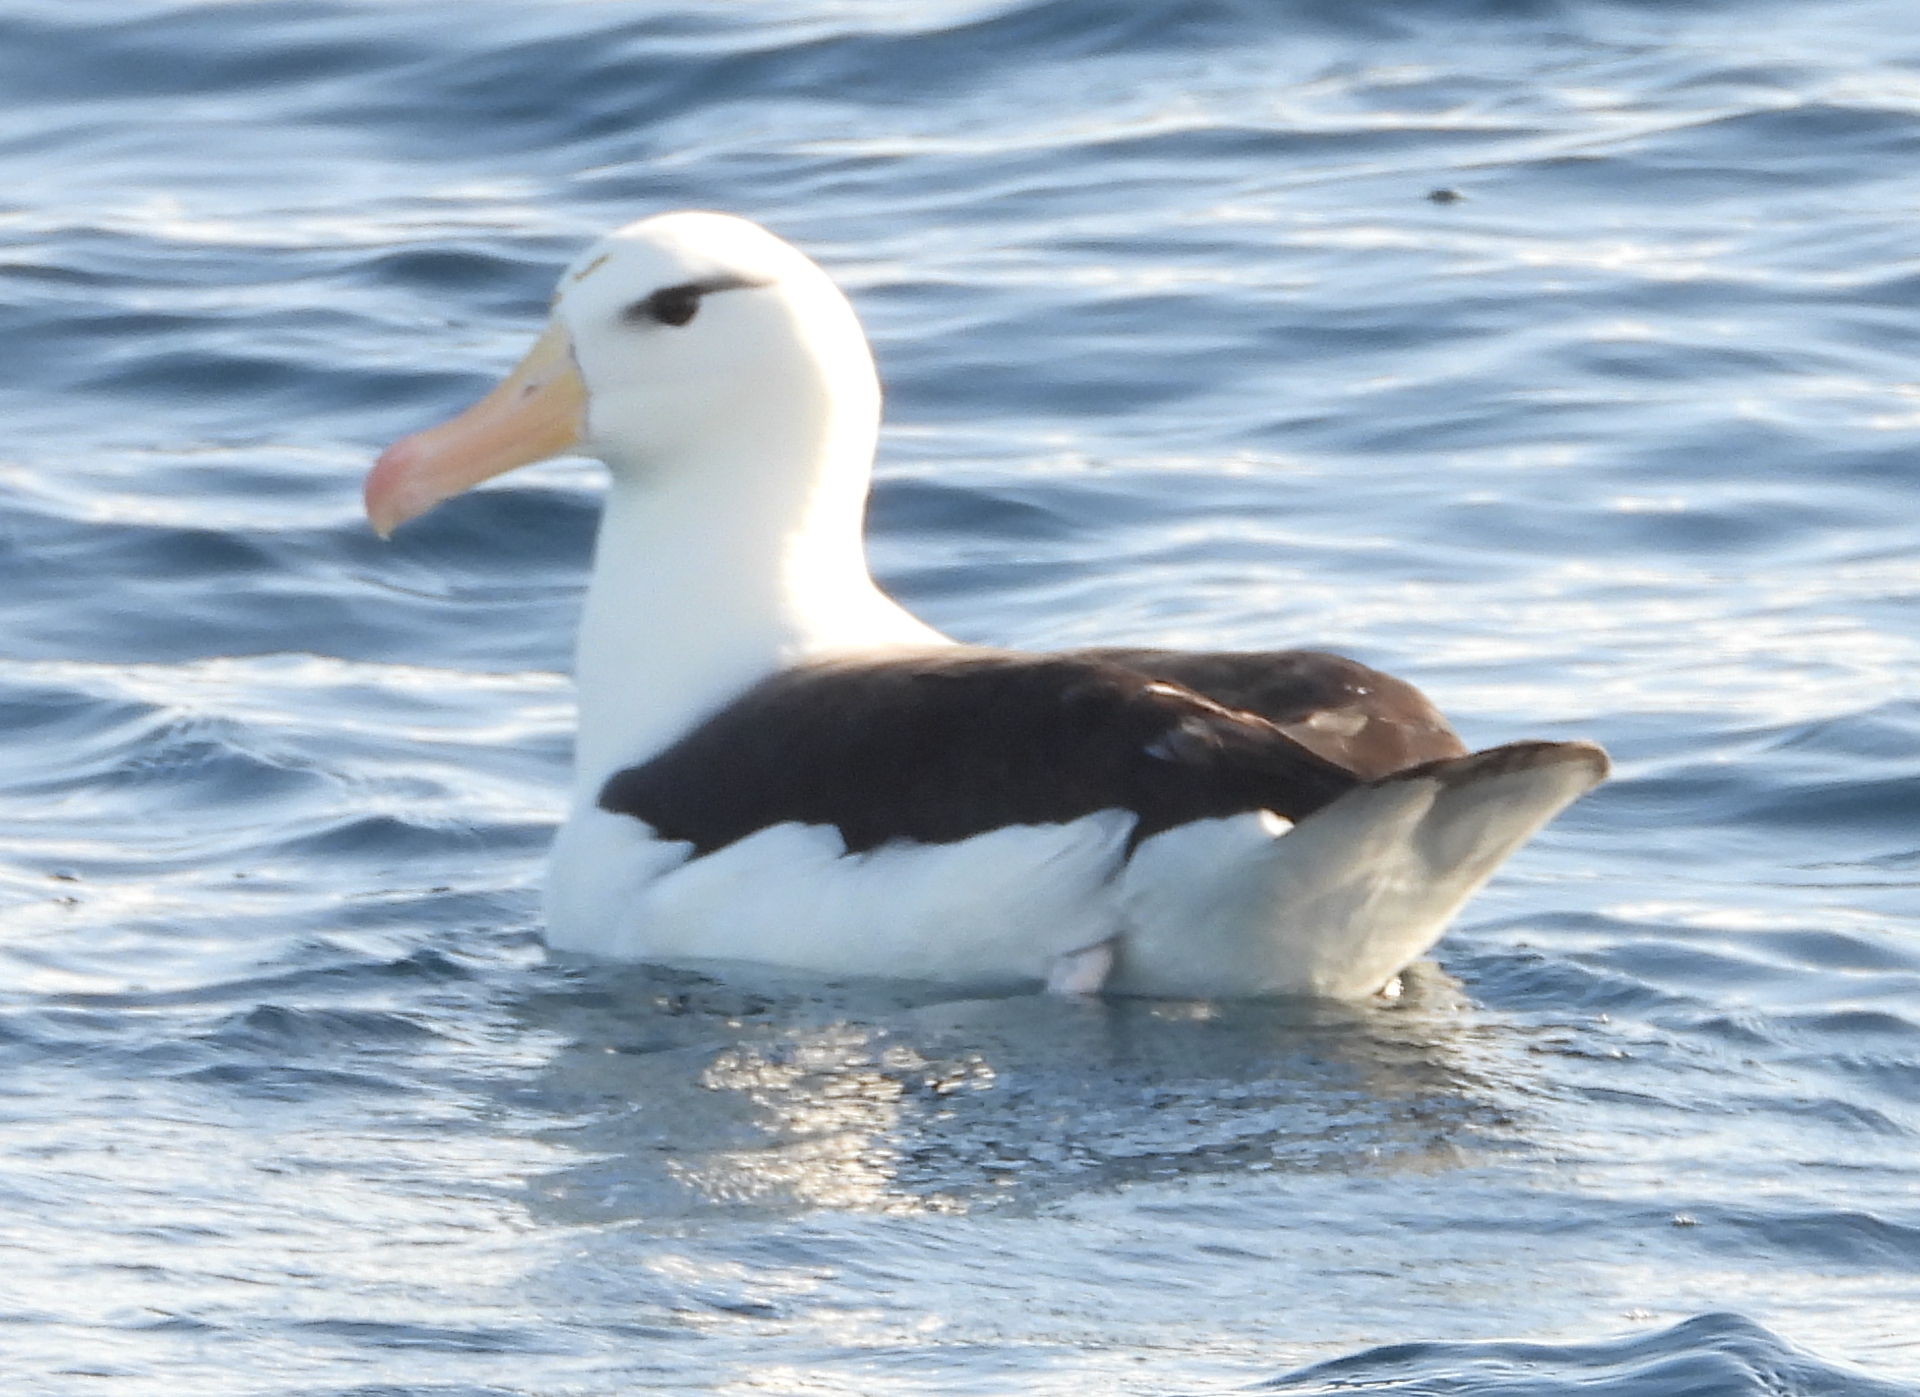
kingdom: Animalia
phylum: Chordata
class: Aves
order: Procellariiformes
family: Diomedeidae
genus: Thalassarche
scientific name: Thalassarche melanophris
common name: Black-browed albatross
